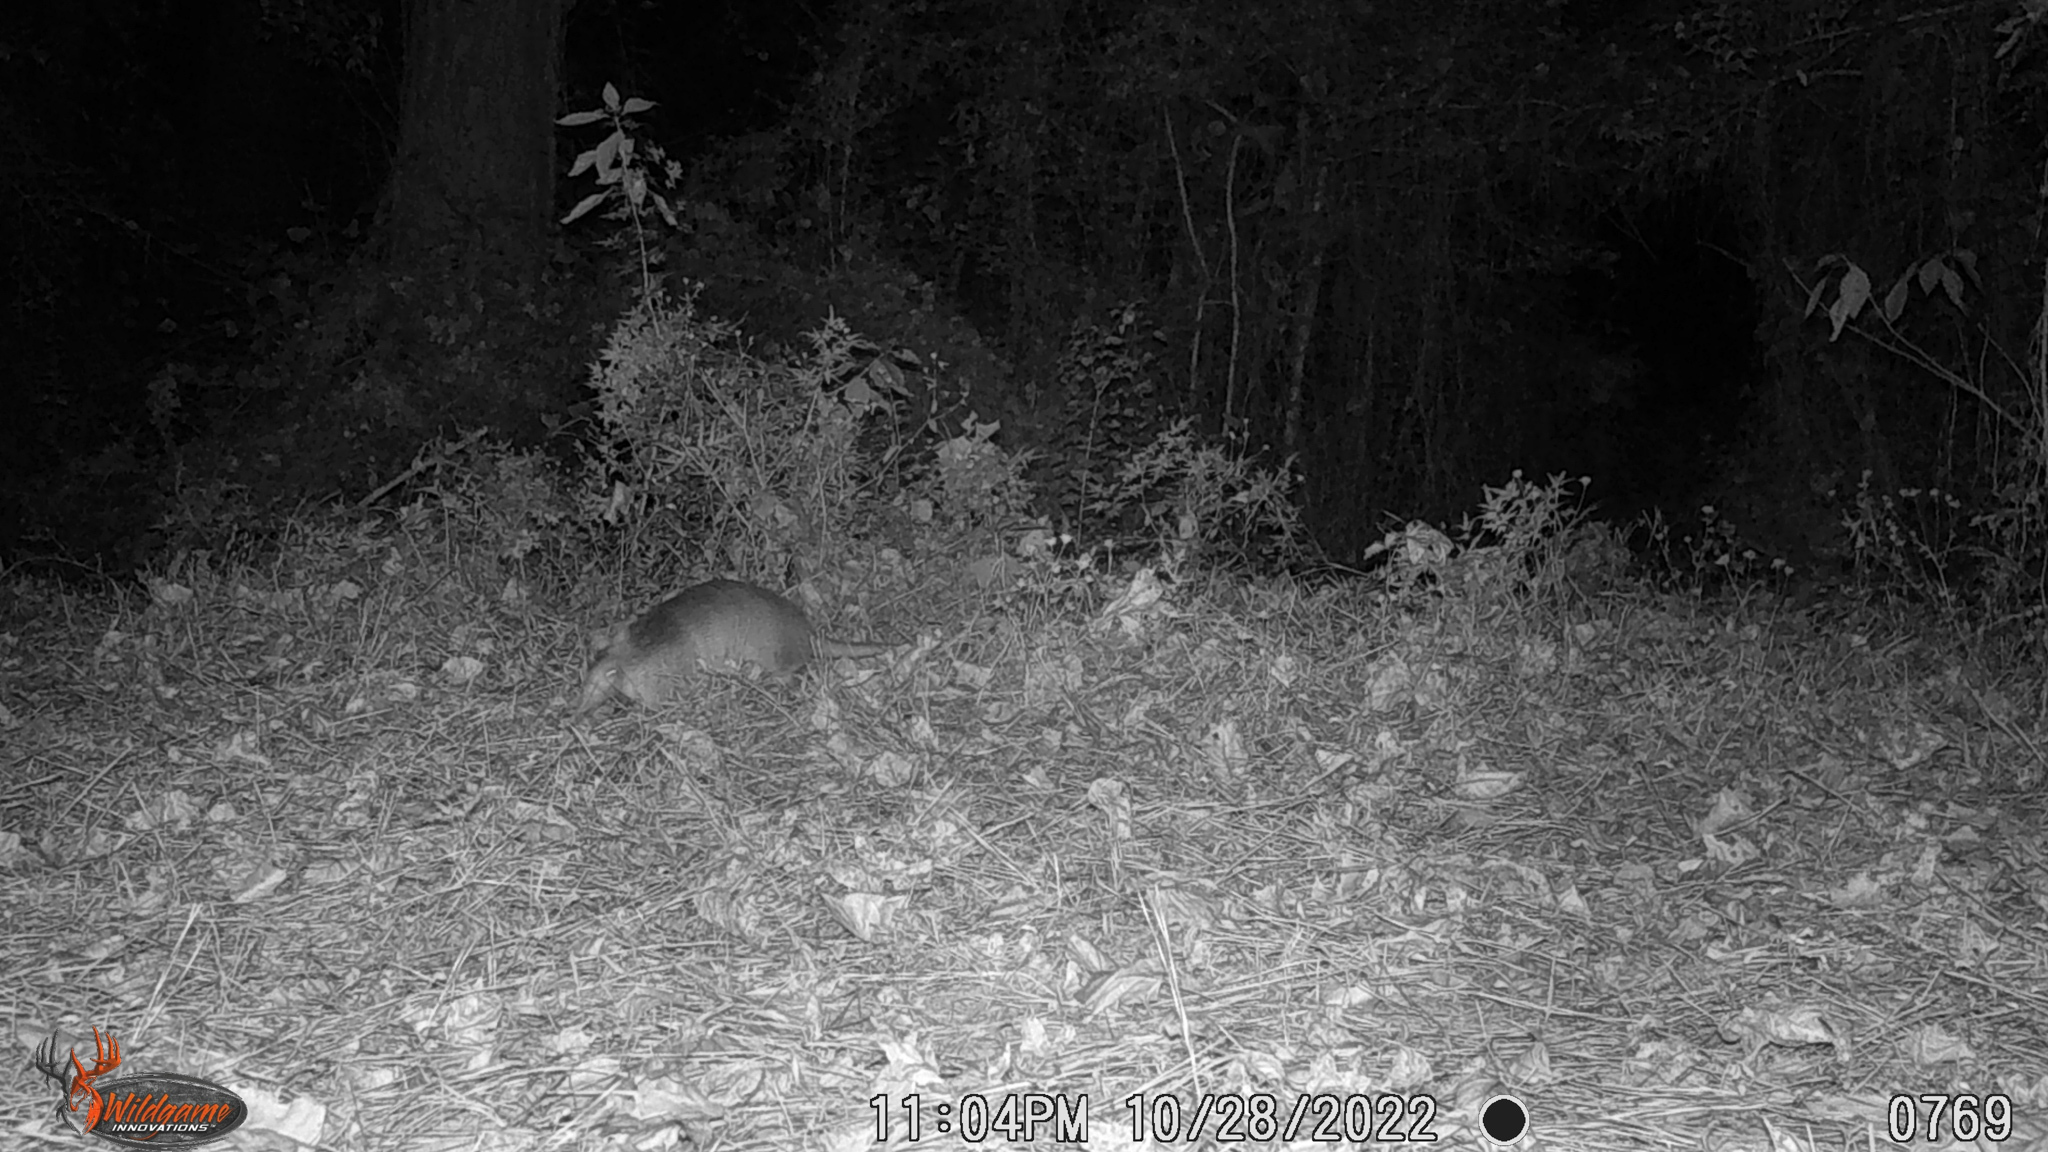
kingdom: Animalia
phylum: Chordata
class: Mammalia
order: Cingulata
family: Dasypodidae
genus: Dasypus
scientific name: Dasypus novemcinctus
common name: Nine-banded armadillo
